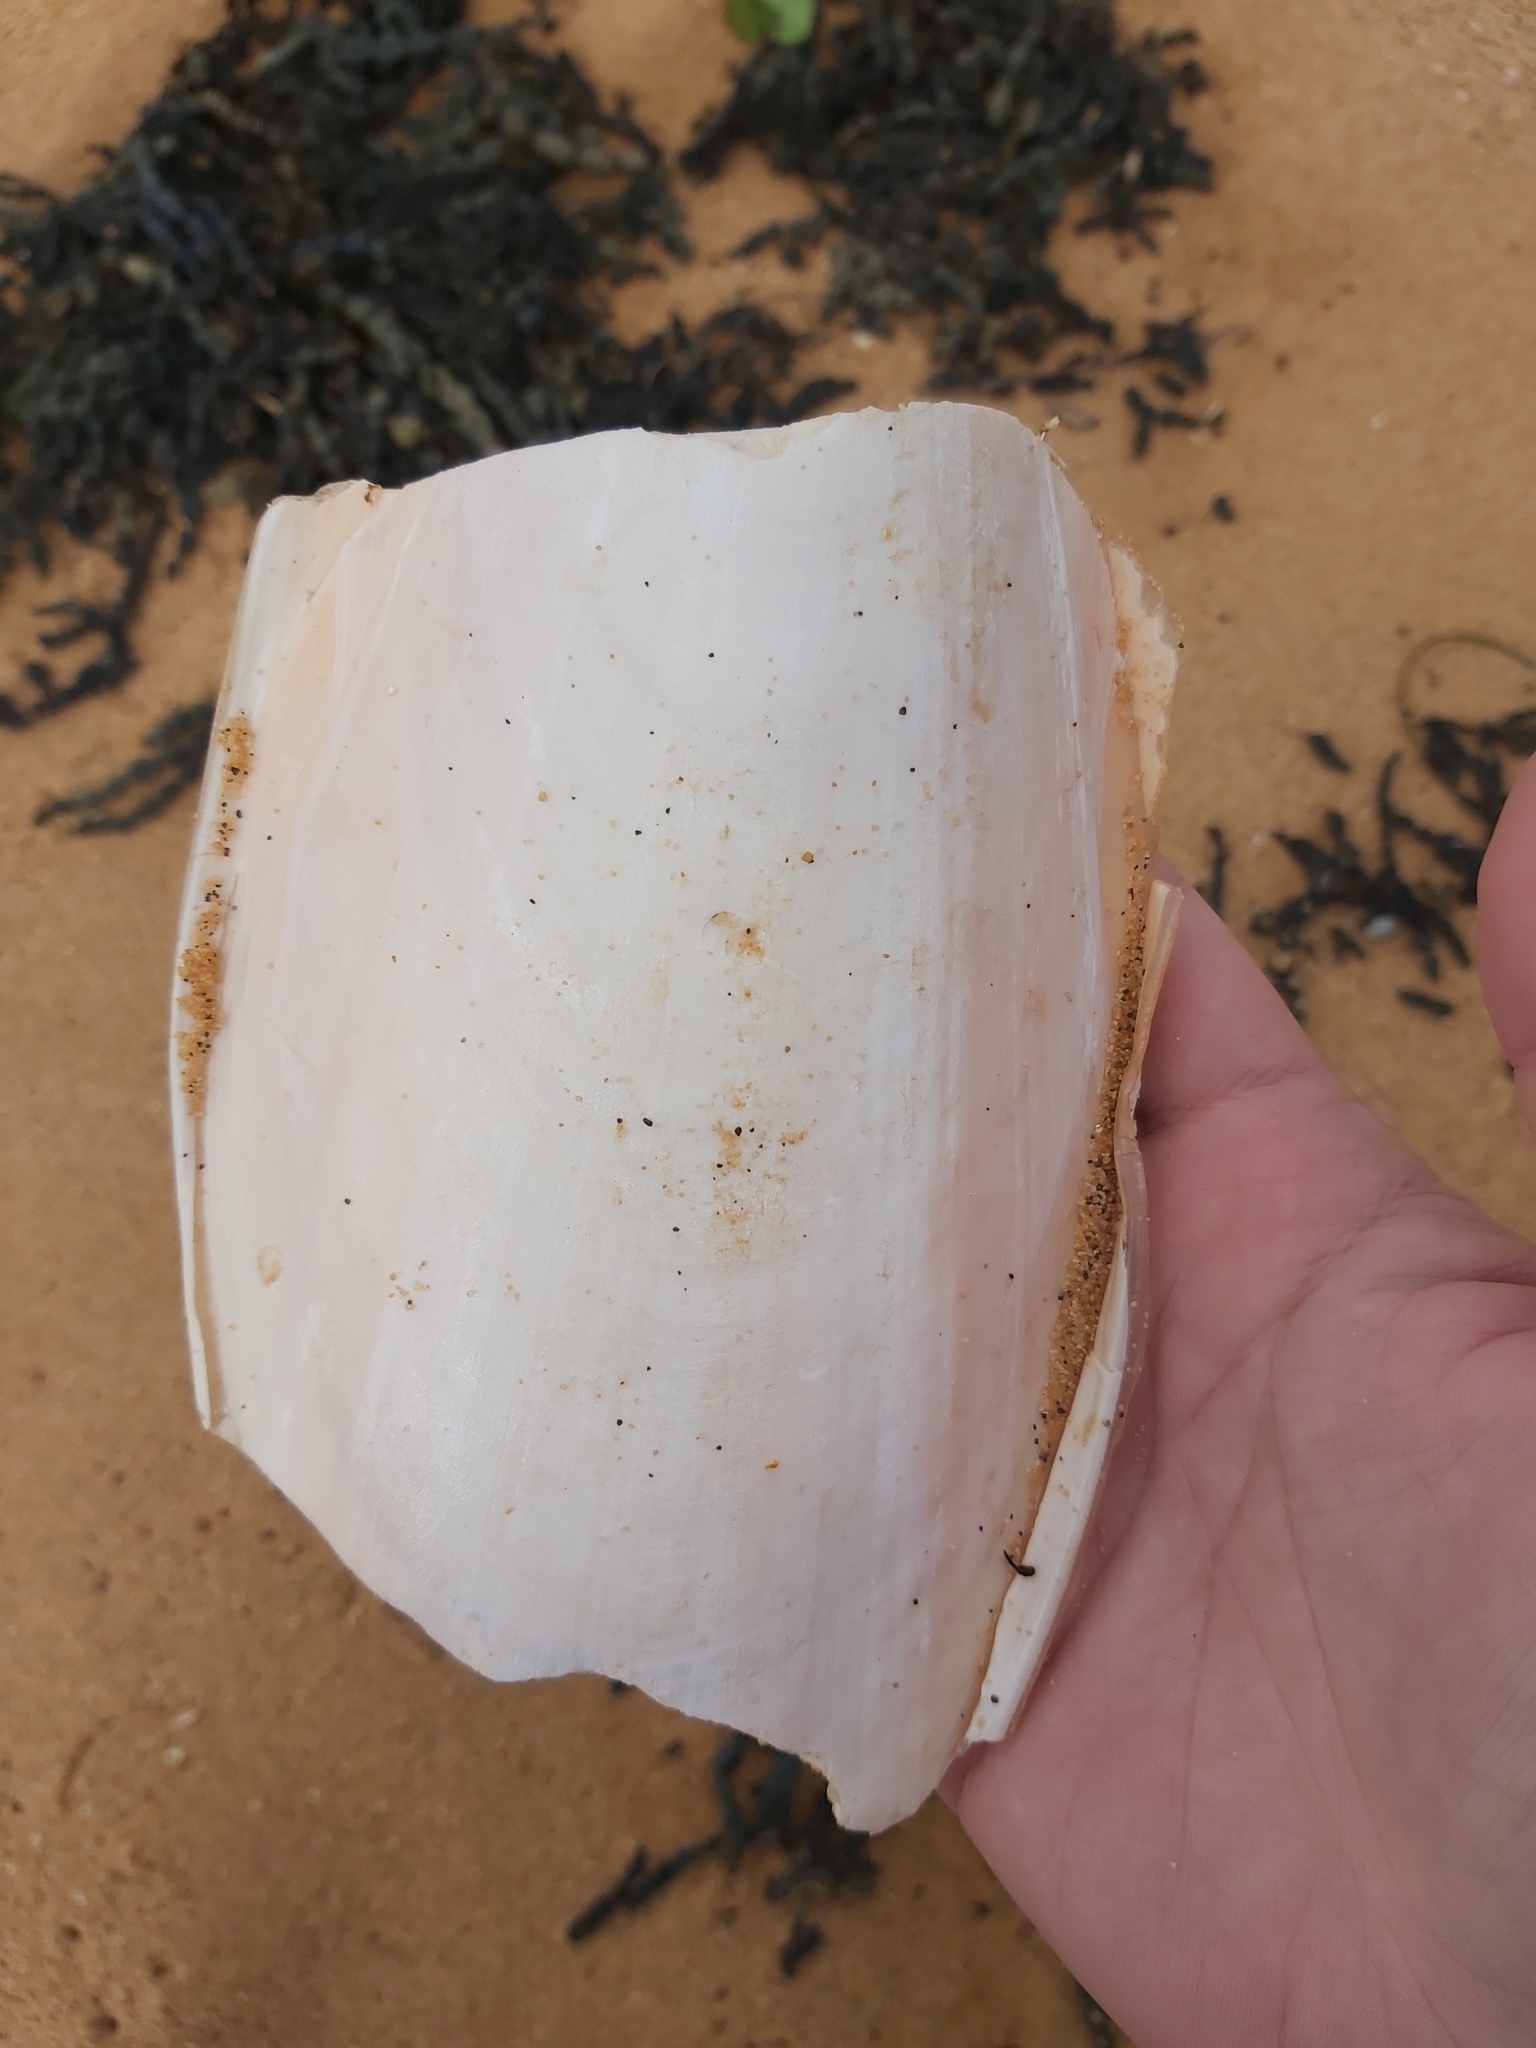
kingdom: Animalia
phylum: Mollusca
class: Cephalopoda
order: Sepiida
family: Sepiidae
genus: Ascarosepion
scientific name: Ascarosepion apama
